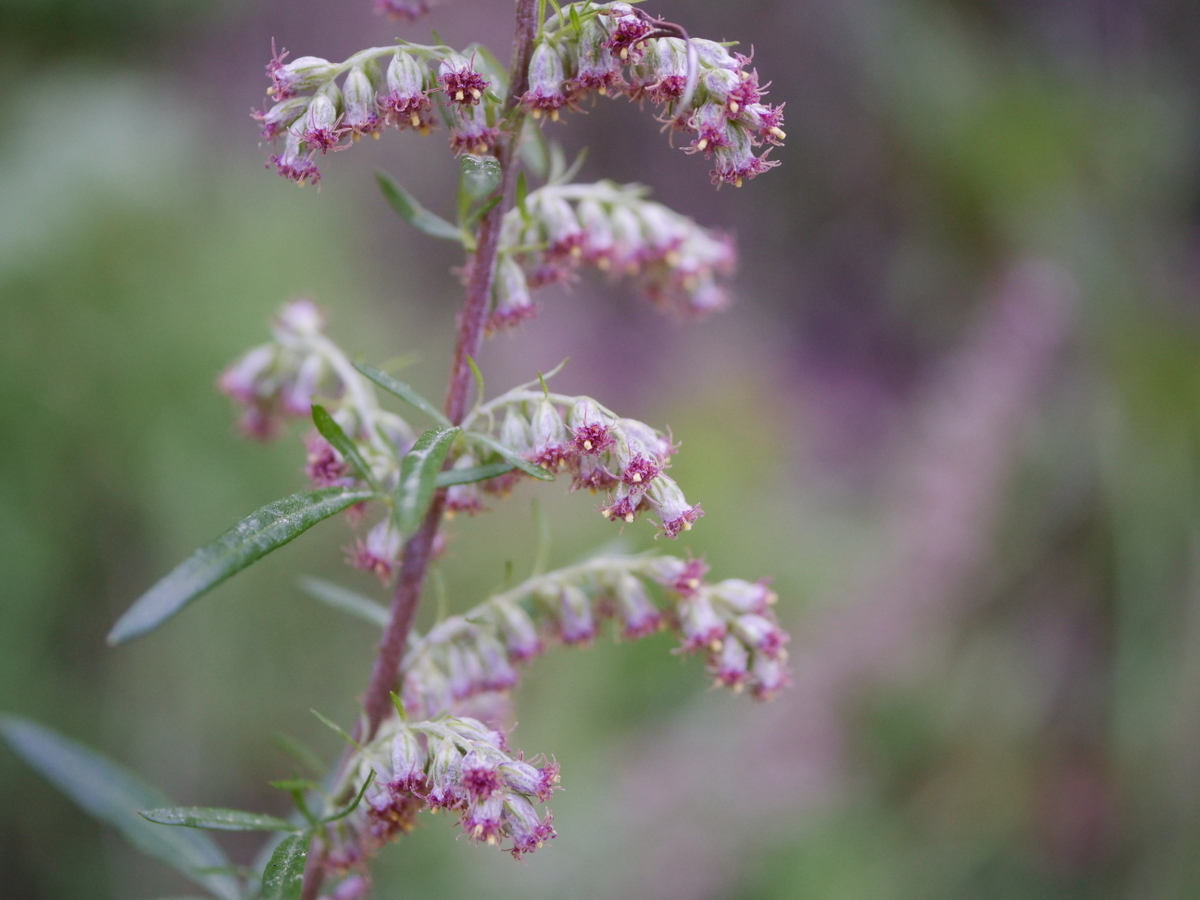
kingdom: Plantae
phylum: Tracheophyta
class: Magnoliopsida
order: Asterales
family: Asteraceae
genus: Artemisia
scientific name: Artemisia vulgaris
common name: Mugwort
